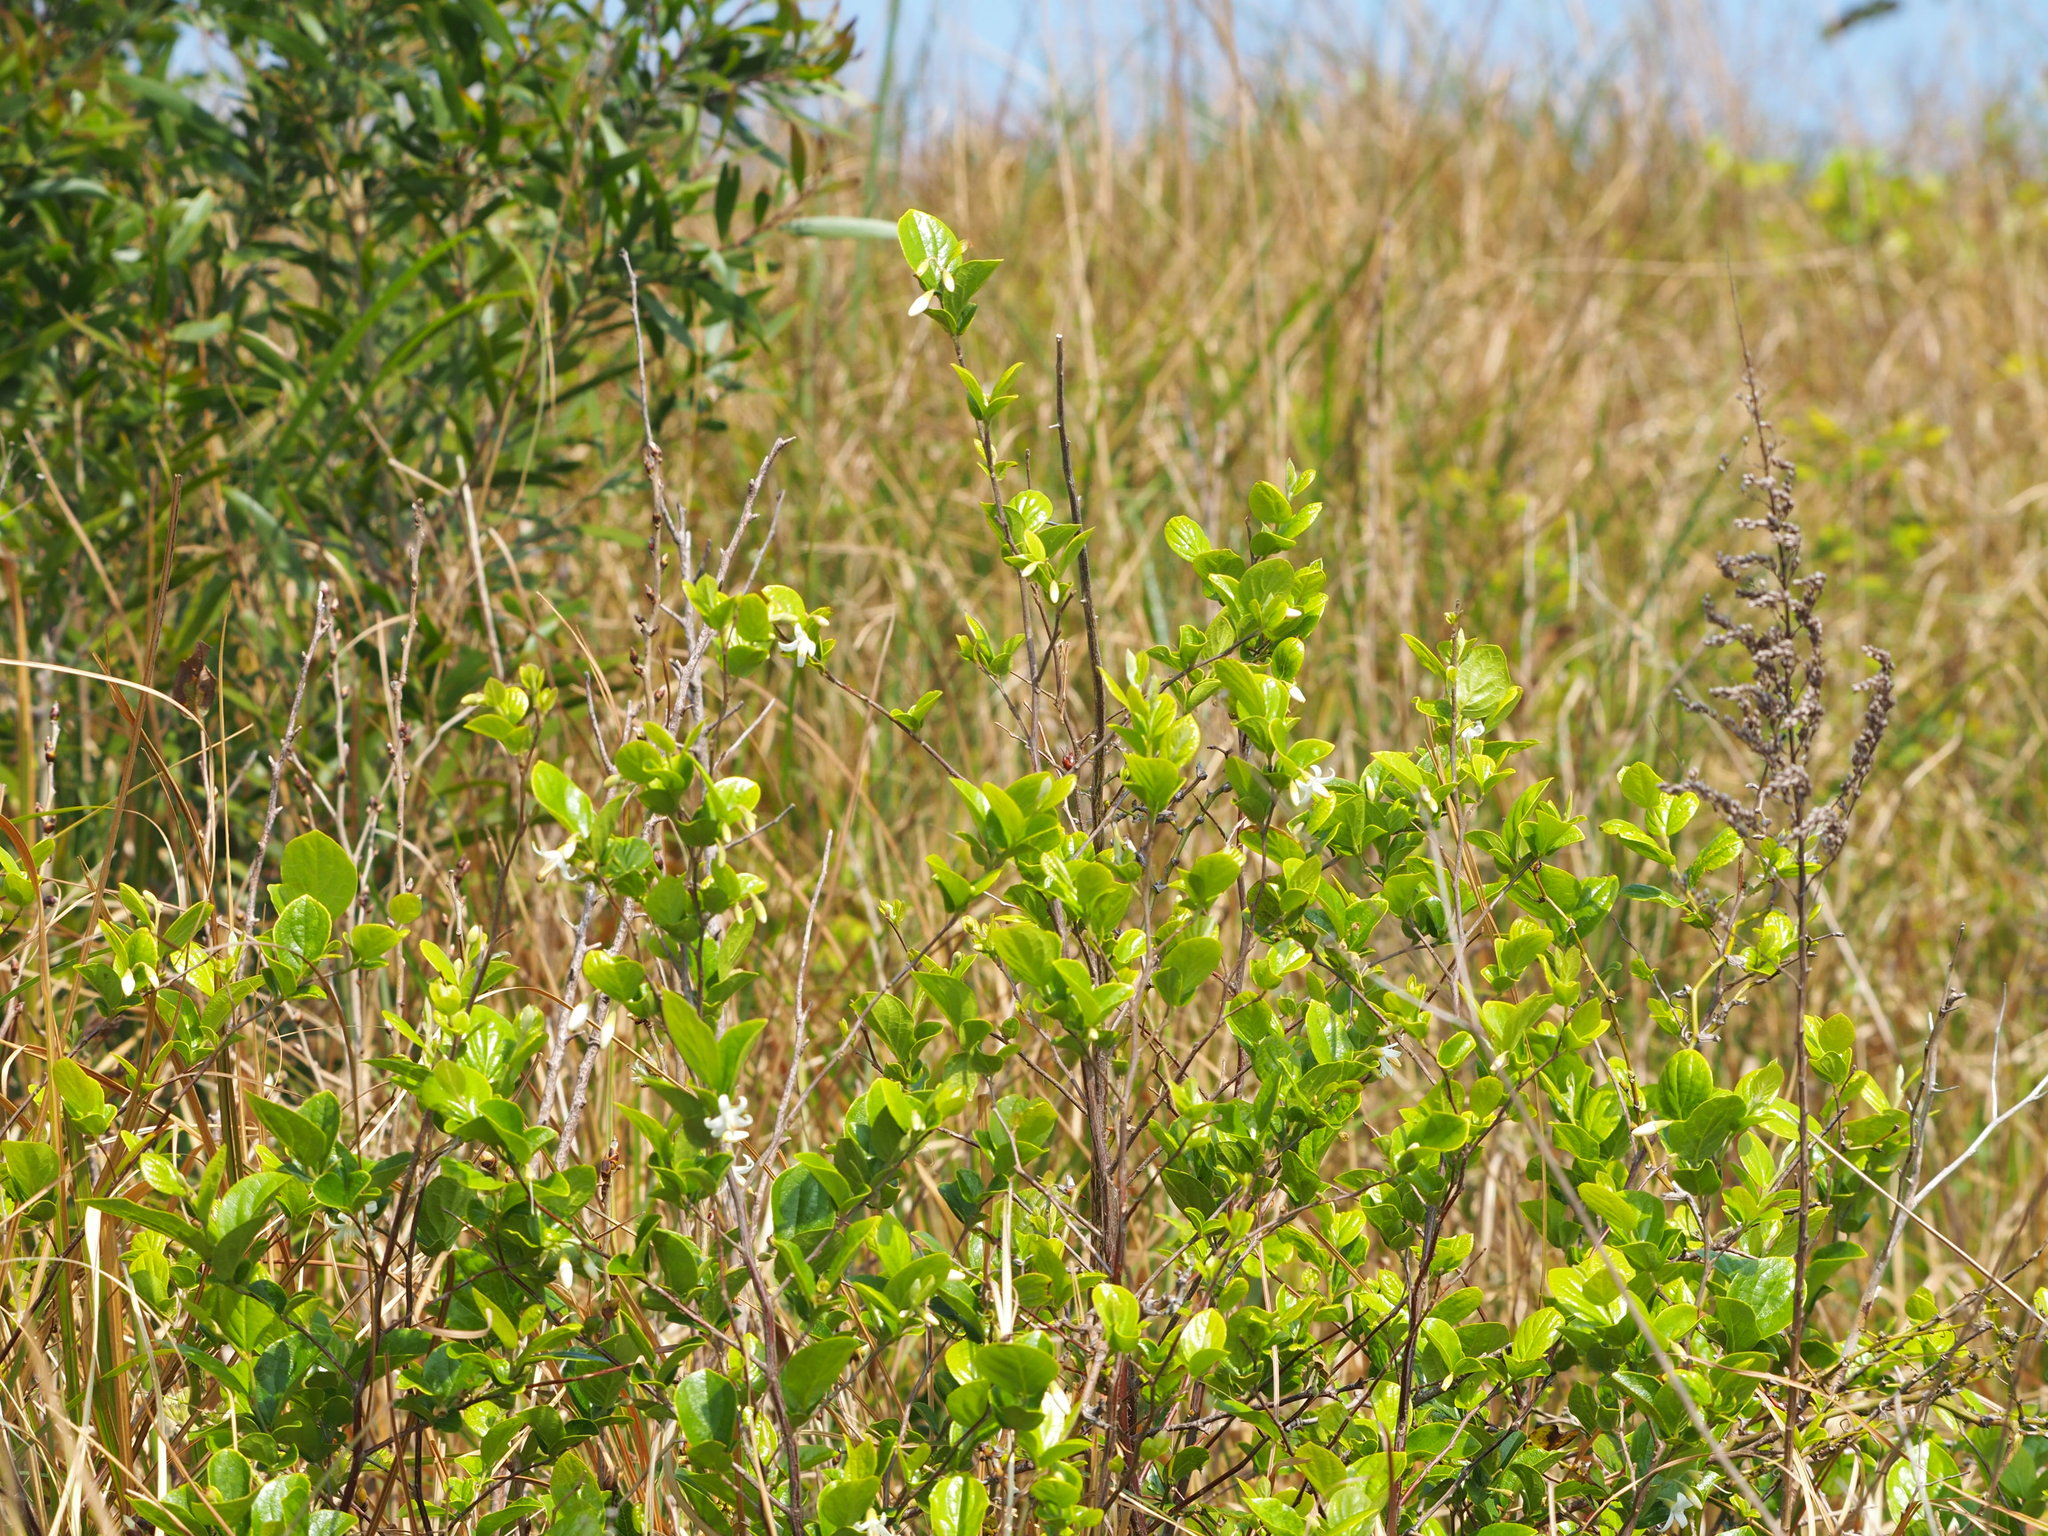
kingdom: Plantae
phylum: Tracheophyta
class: Magnoliopsida
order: Ericales
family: Styracaceae
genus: Styrax
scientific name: Styrax faberi
